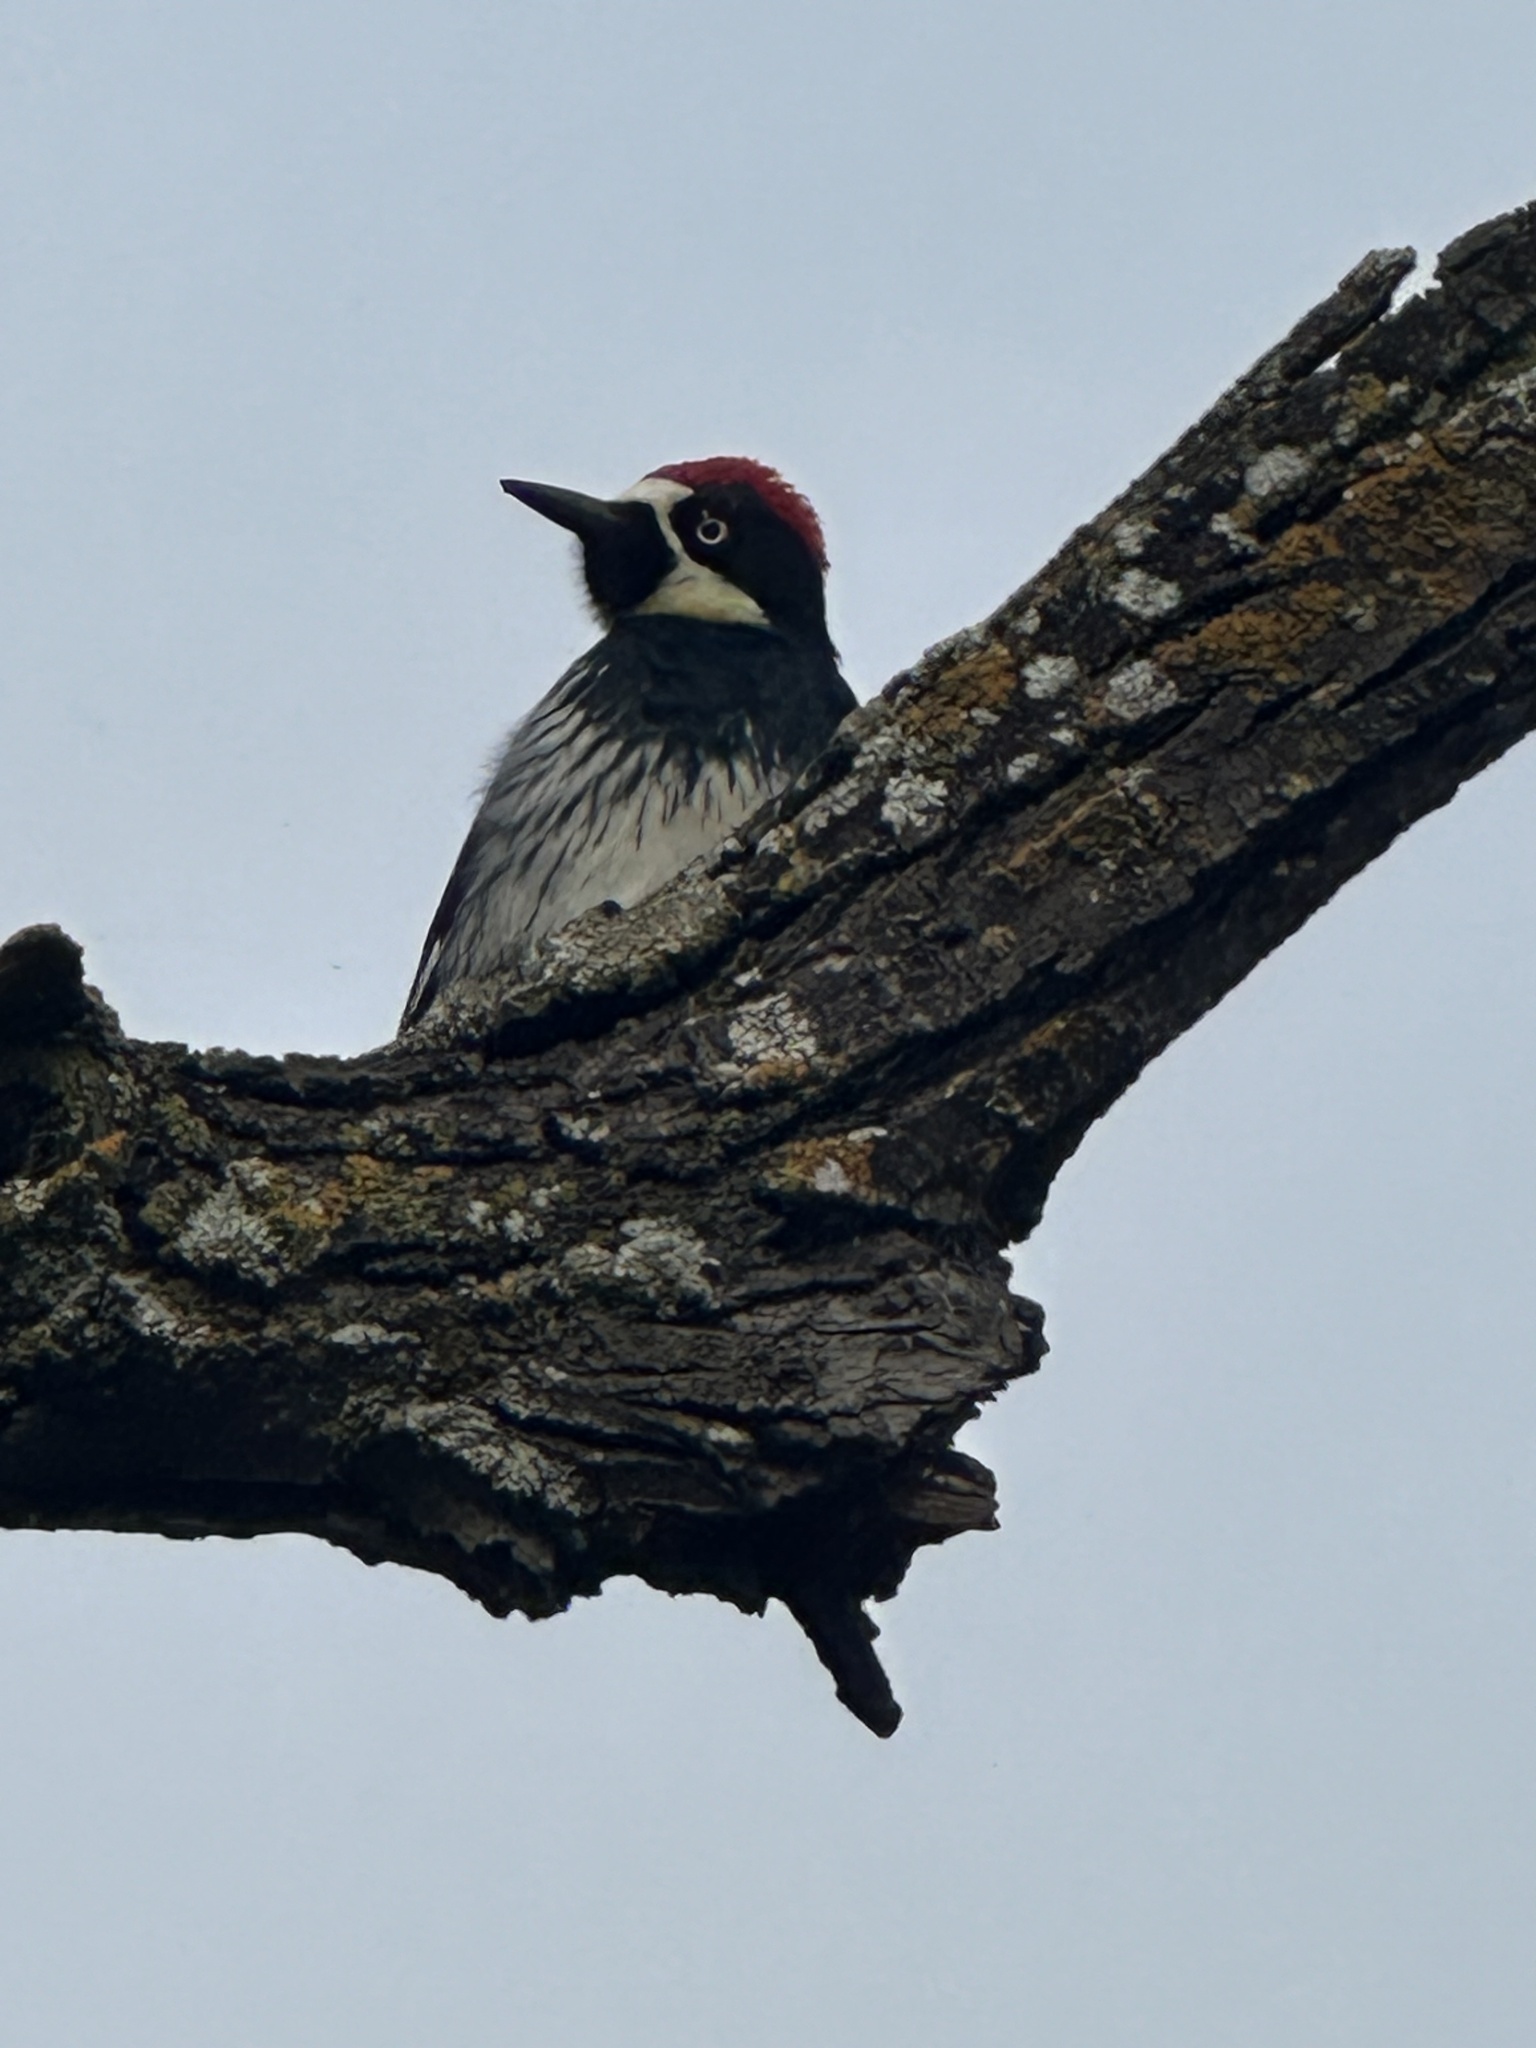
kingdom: Animalia
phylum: Chordata
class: Aves
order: Piciformes
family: Picidae
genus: Melanerpes
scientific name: Melanerpes formicivorus
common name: Acorn woodpecker
